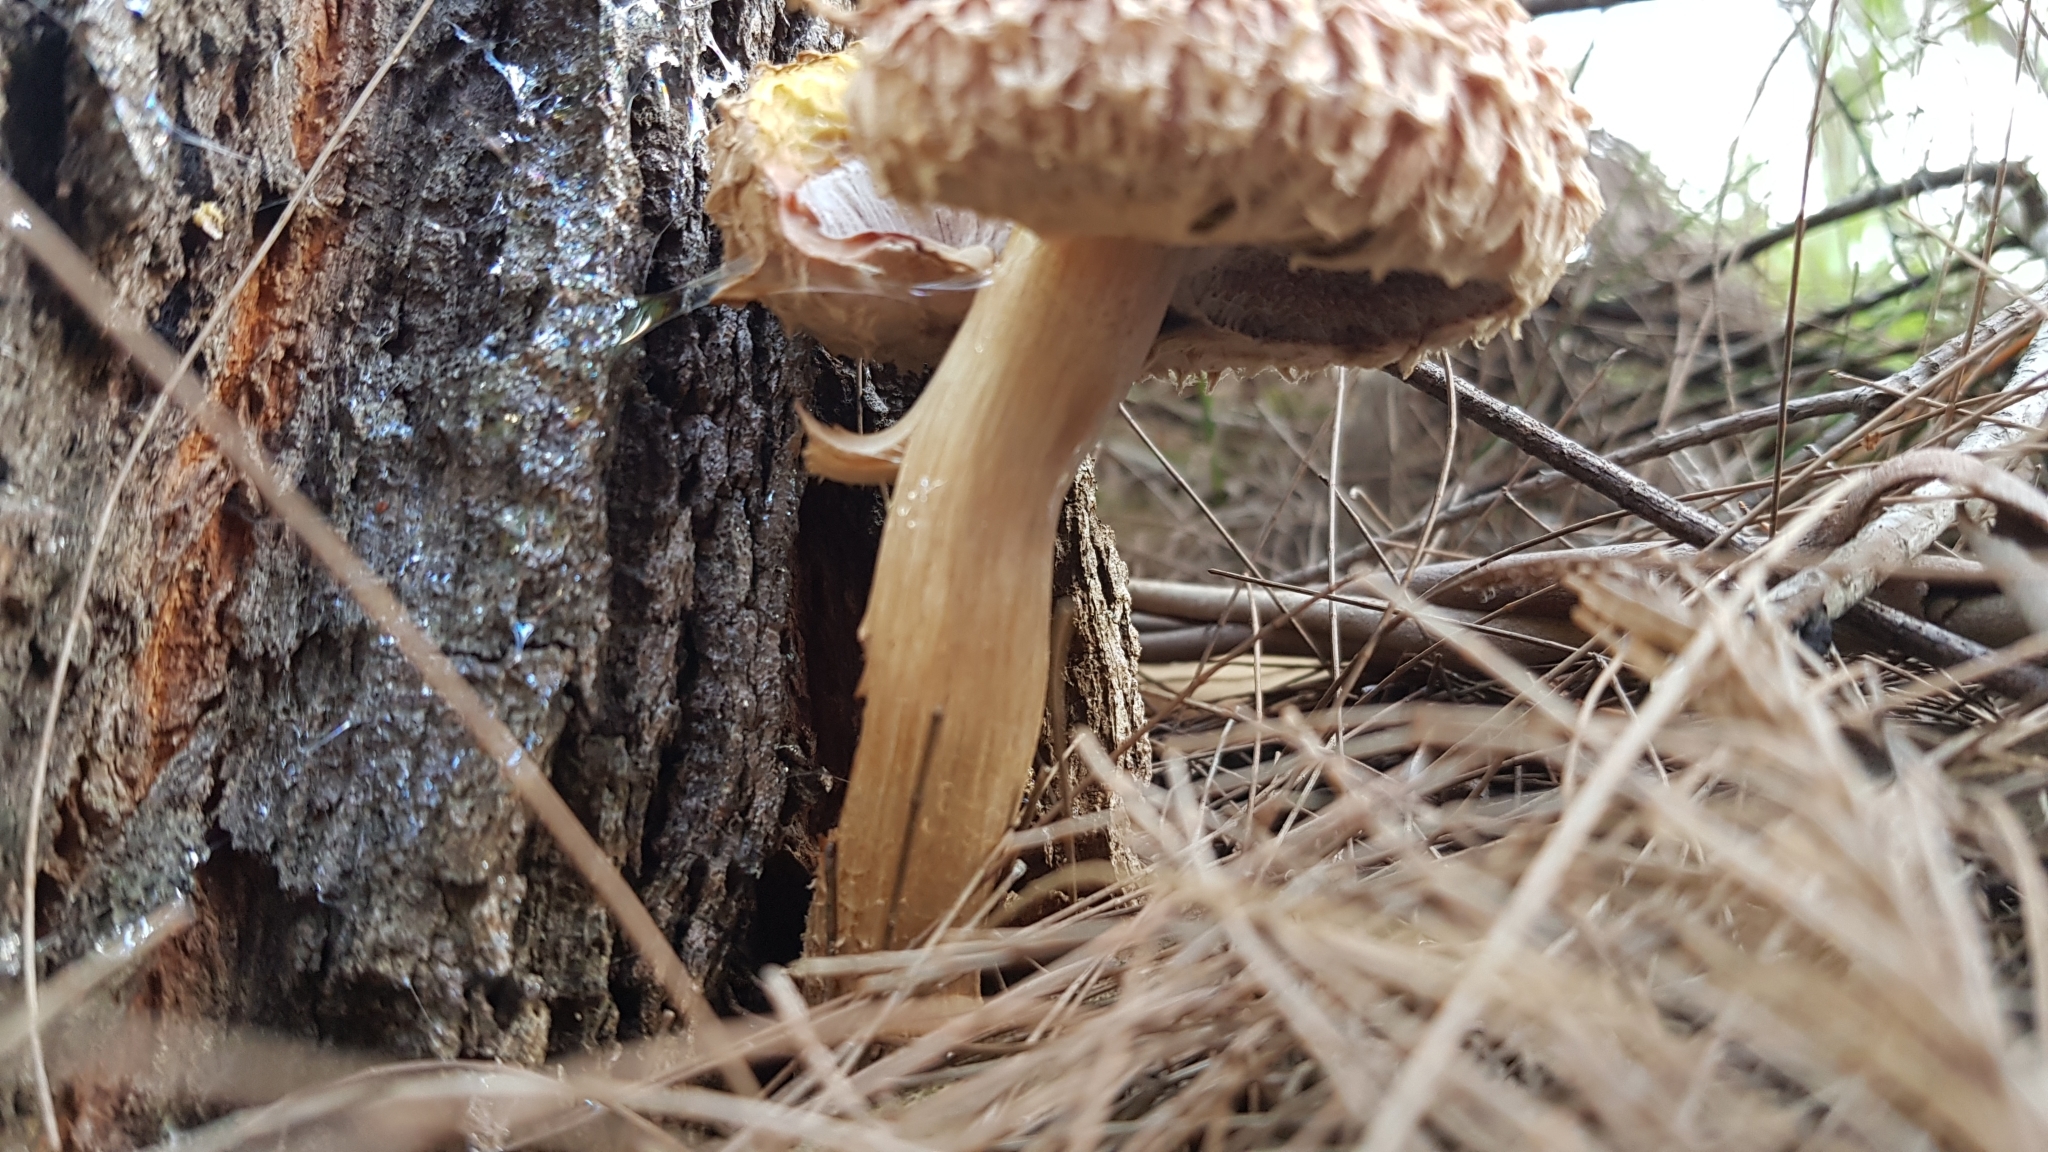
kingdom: Fungi
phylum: Basidiomycota
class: Agaricomycetes
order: Boletales
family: Boletaceae
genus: Strobilomyces
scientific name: Strobilomyces ananiceps
